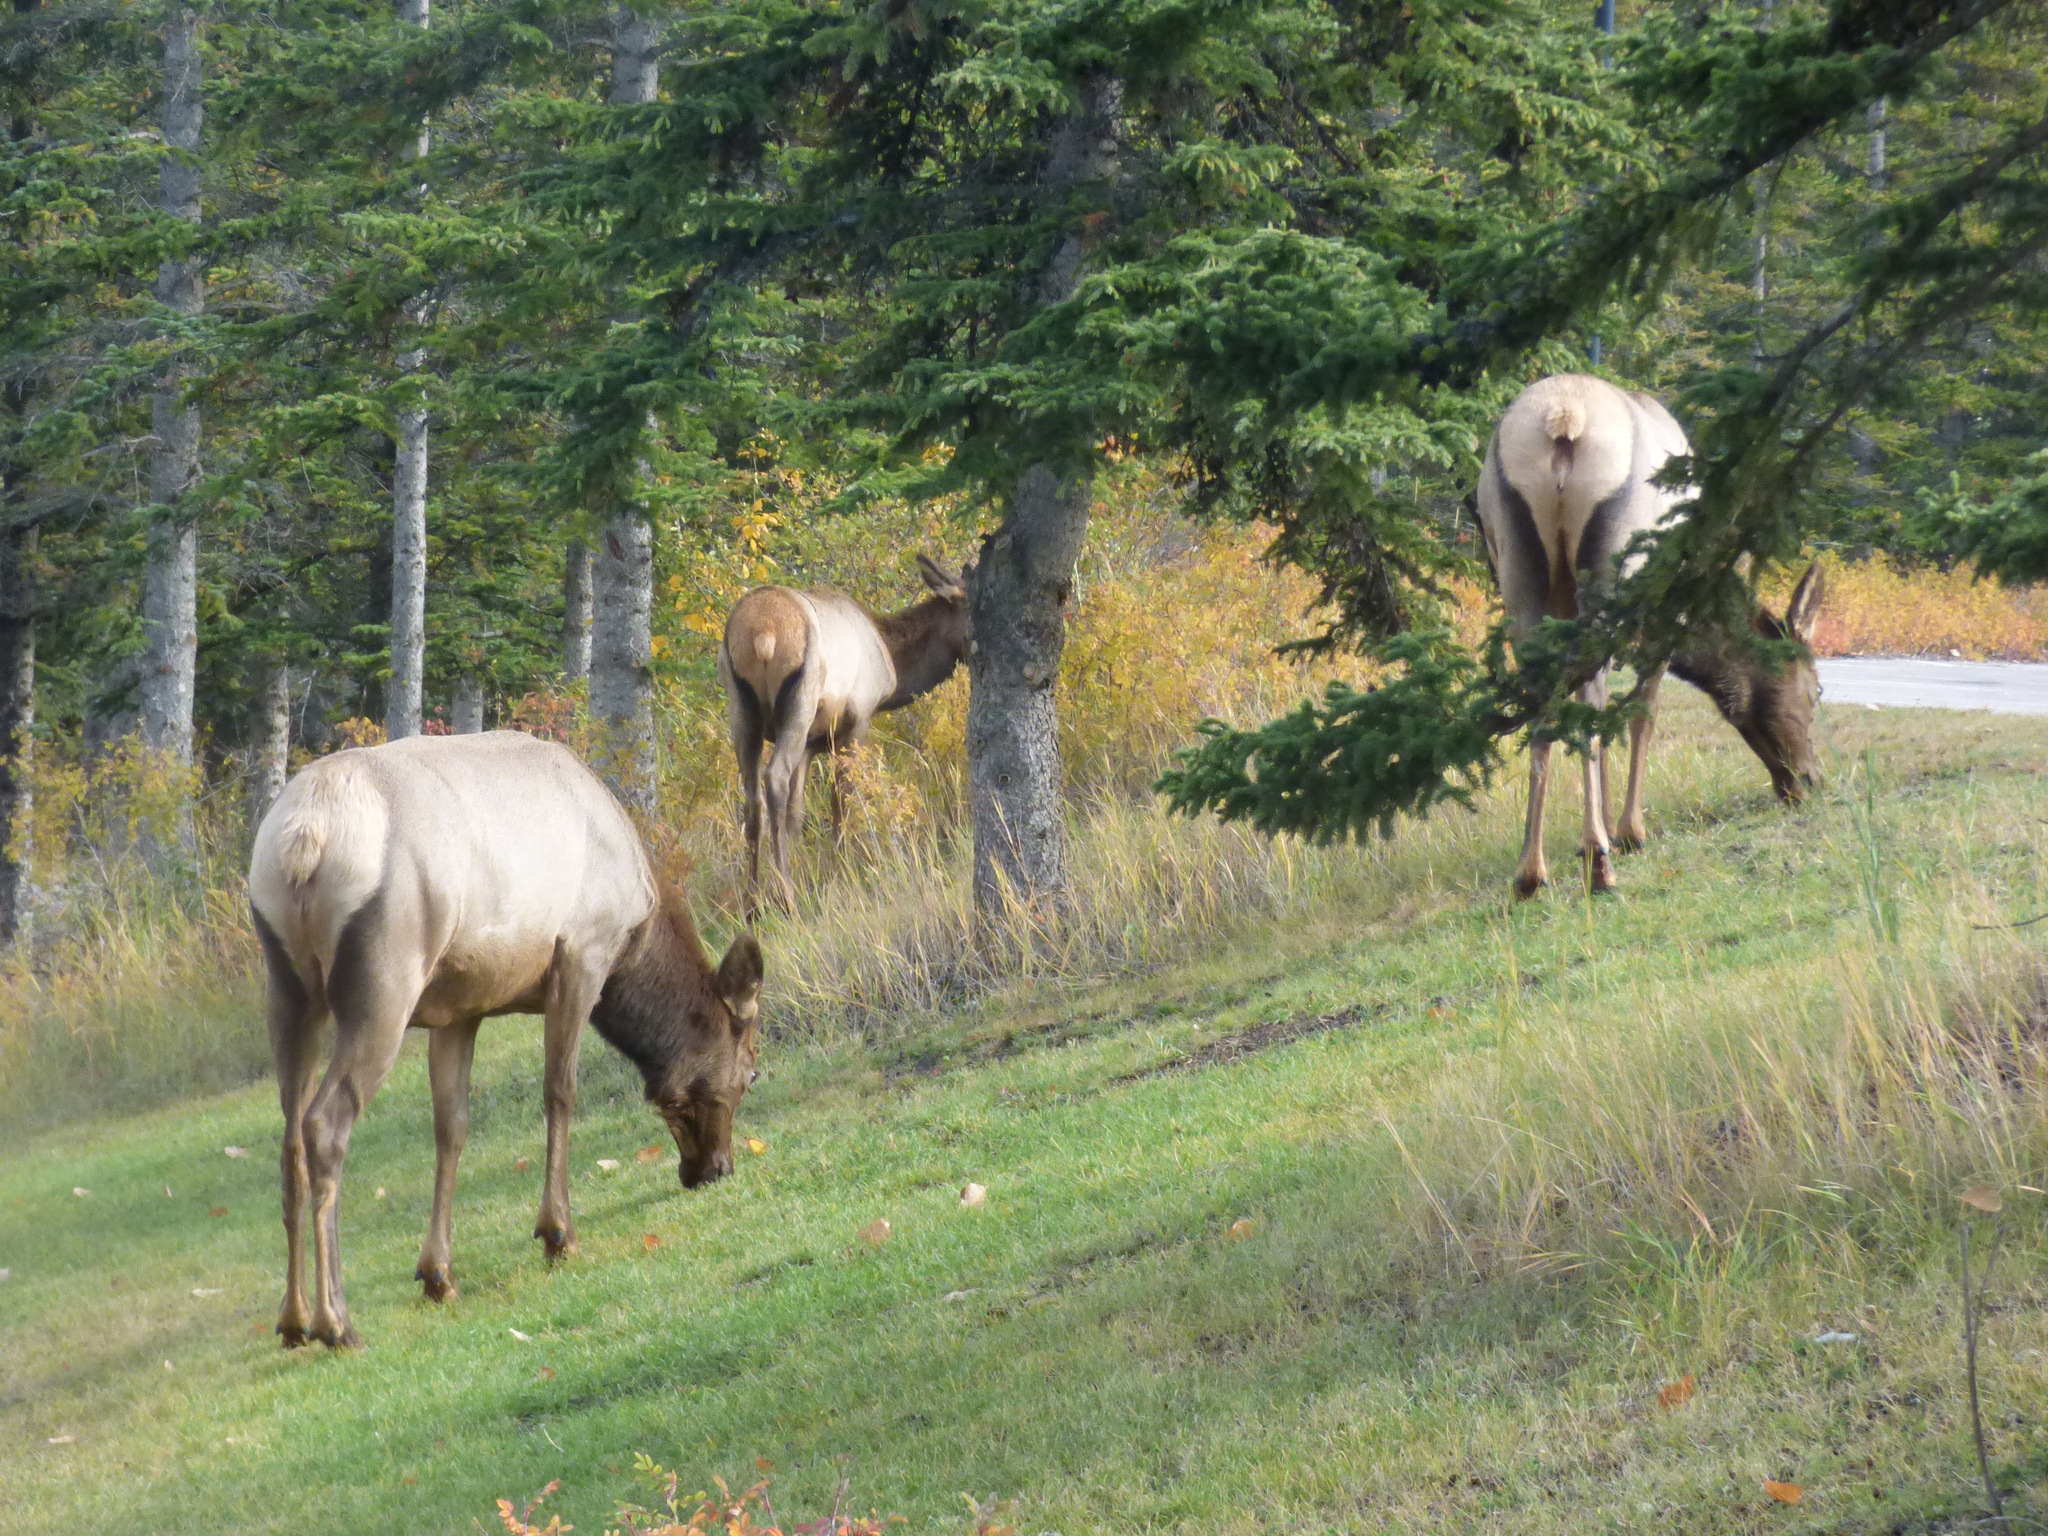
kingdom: Animalia
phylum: Chordata
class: Mammalia
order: Artiodactyla
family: Cervidae
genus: Cervus
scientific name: Cervus elaphus
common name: Red deer
